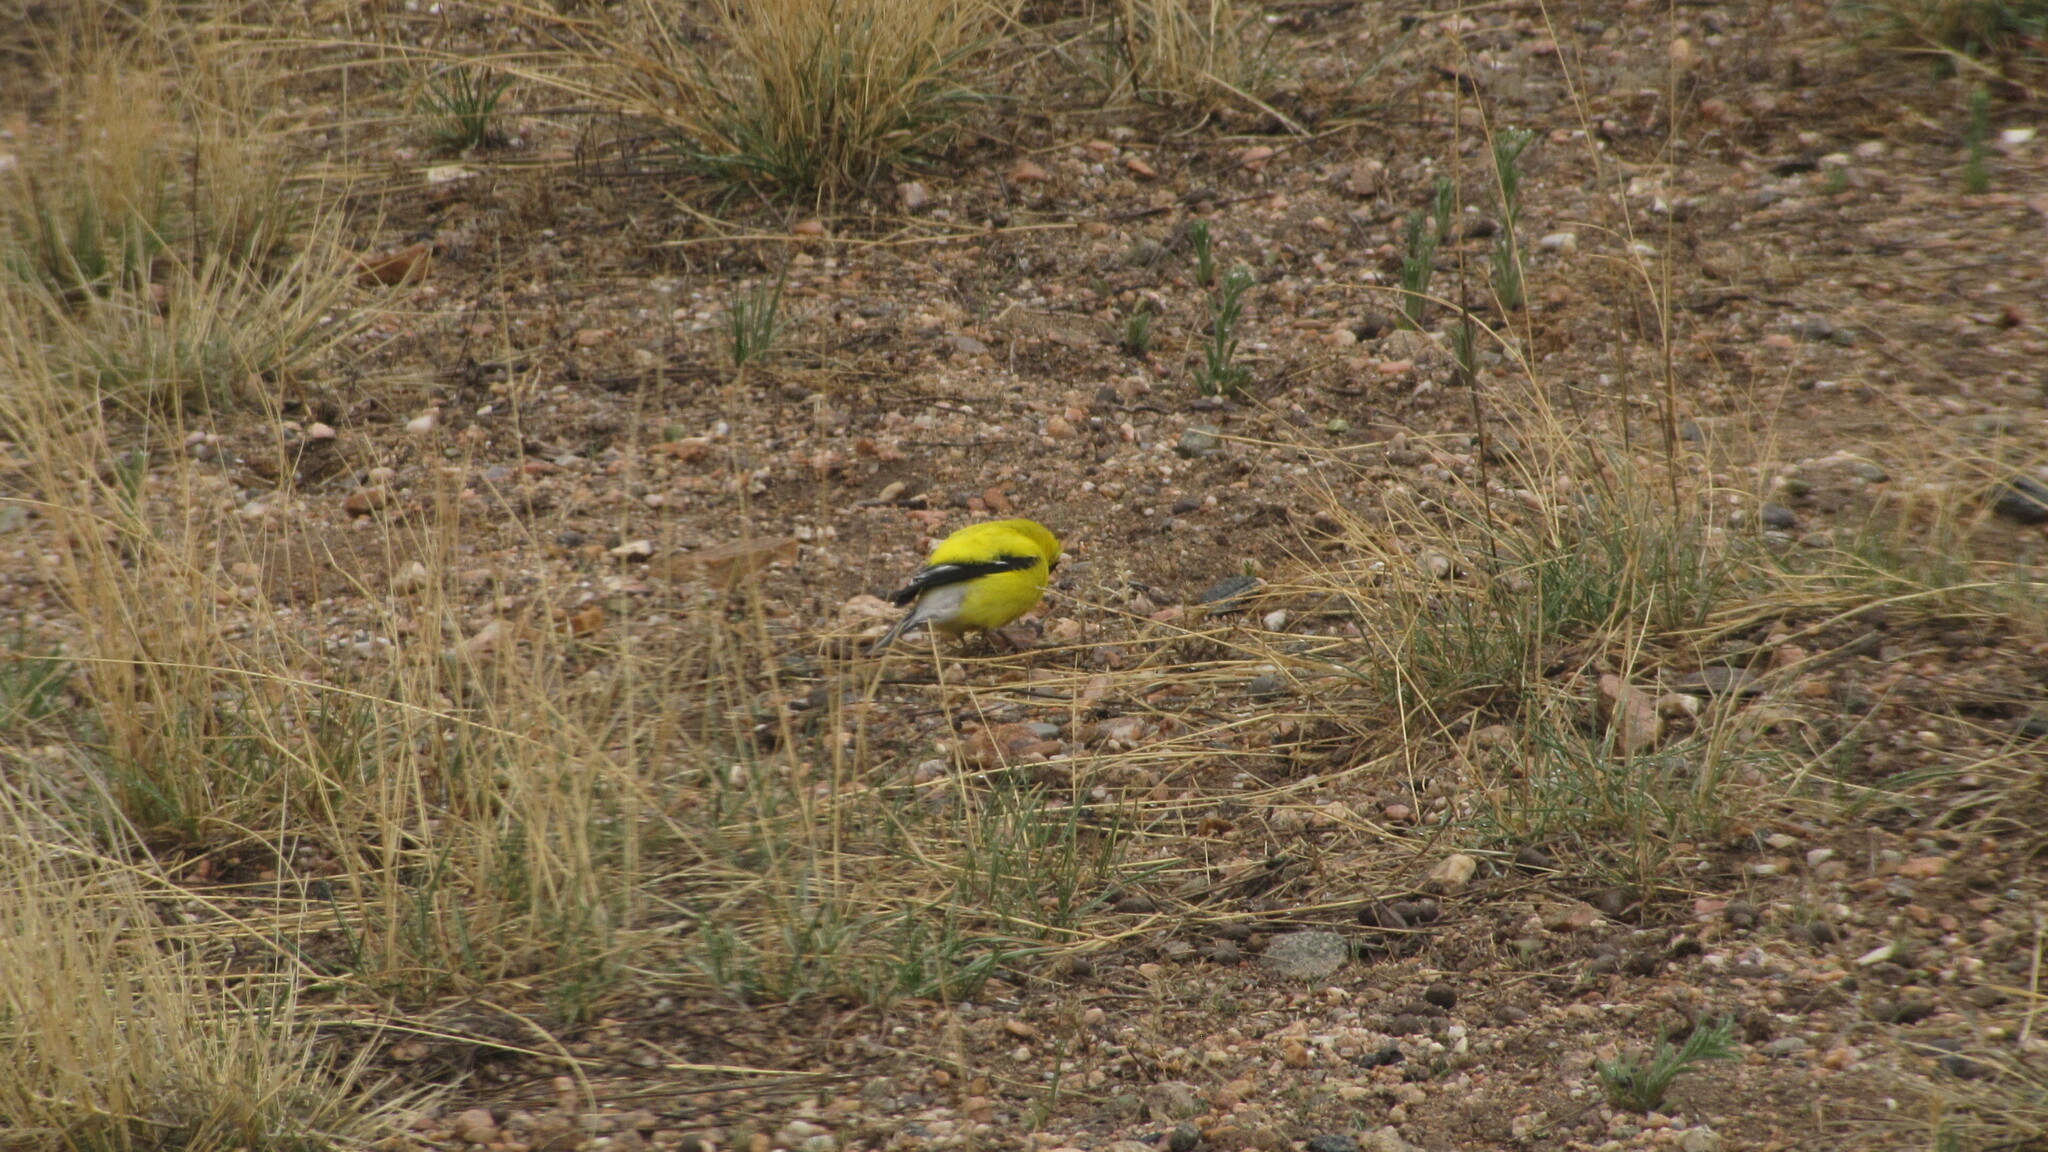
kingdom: Animalia
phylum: Chordata
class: Aves
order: Passeriformes
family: Fringillidae
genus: Spinus
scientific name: Spinus tristis
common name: American goldfinch
